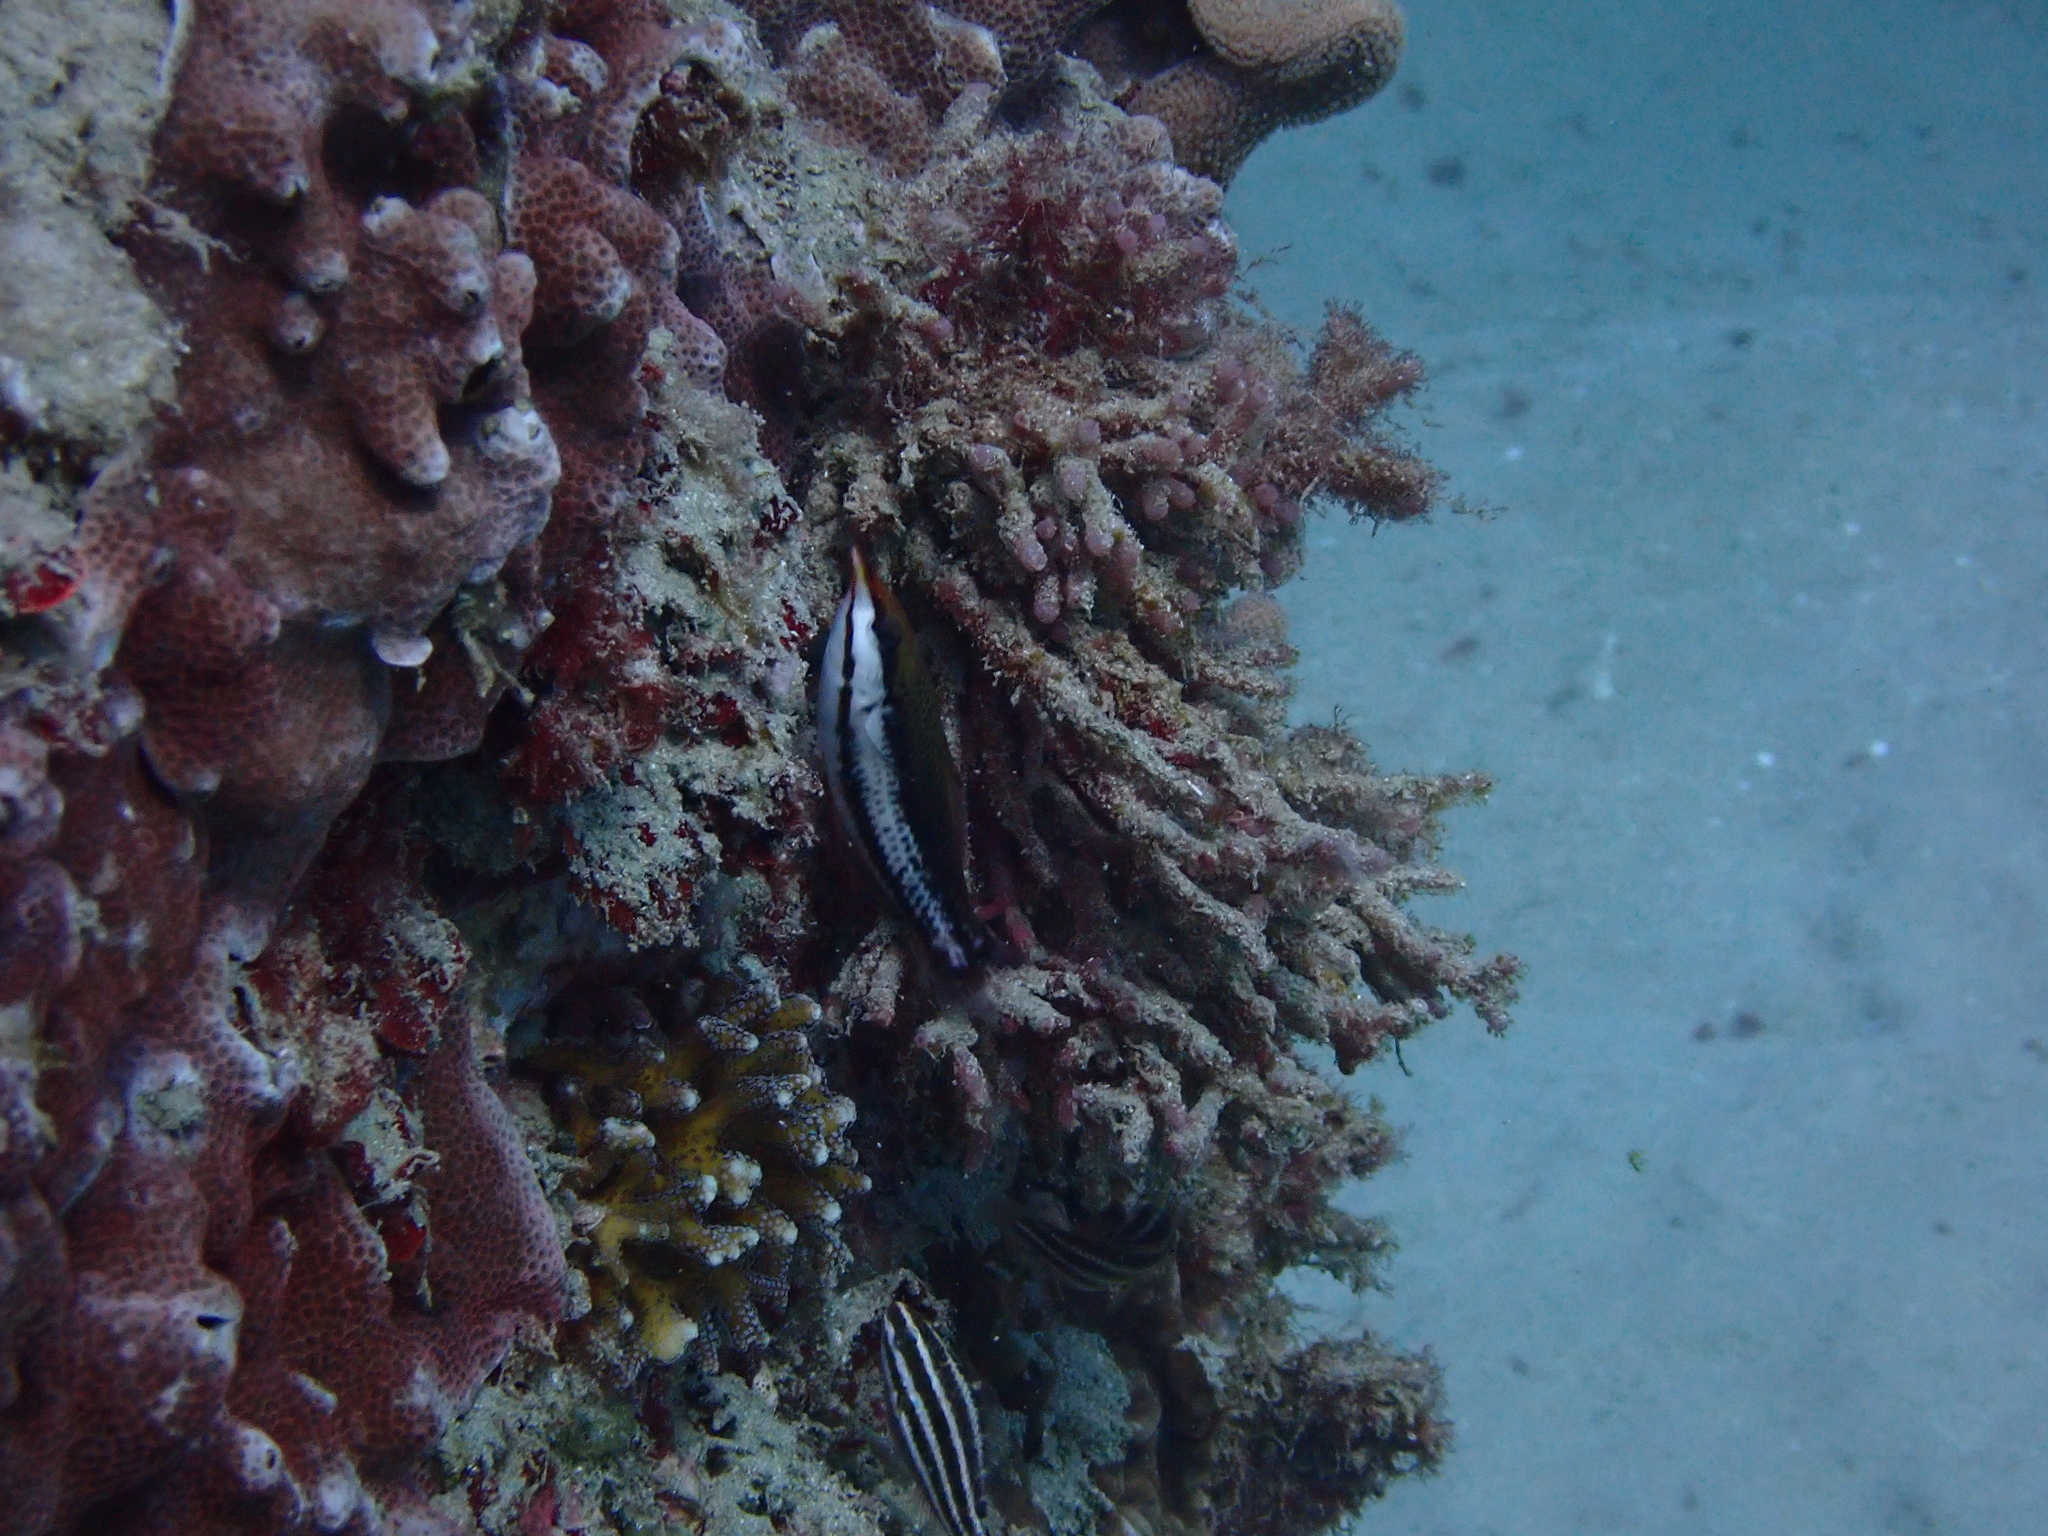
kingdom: Animalia
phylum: Chordata
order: Perciformes
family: Labridae
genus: Gomphosus
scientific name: Gomphosus varius
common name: Bird wrasse
